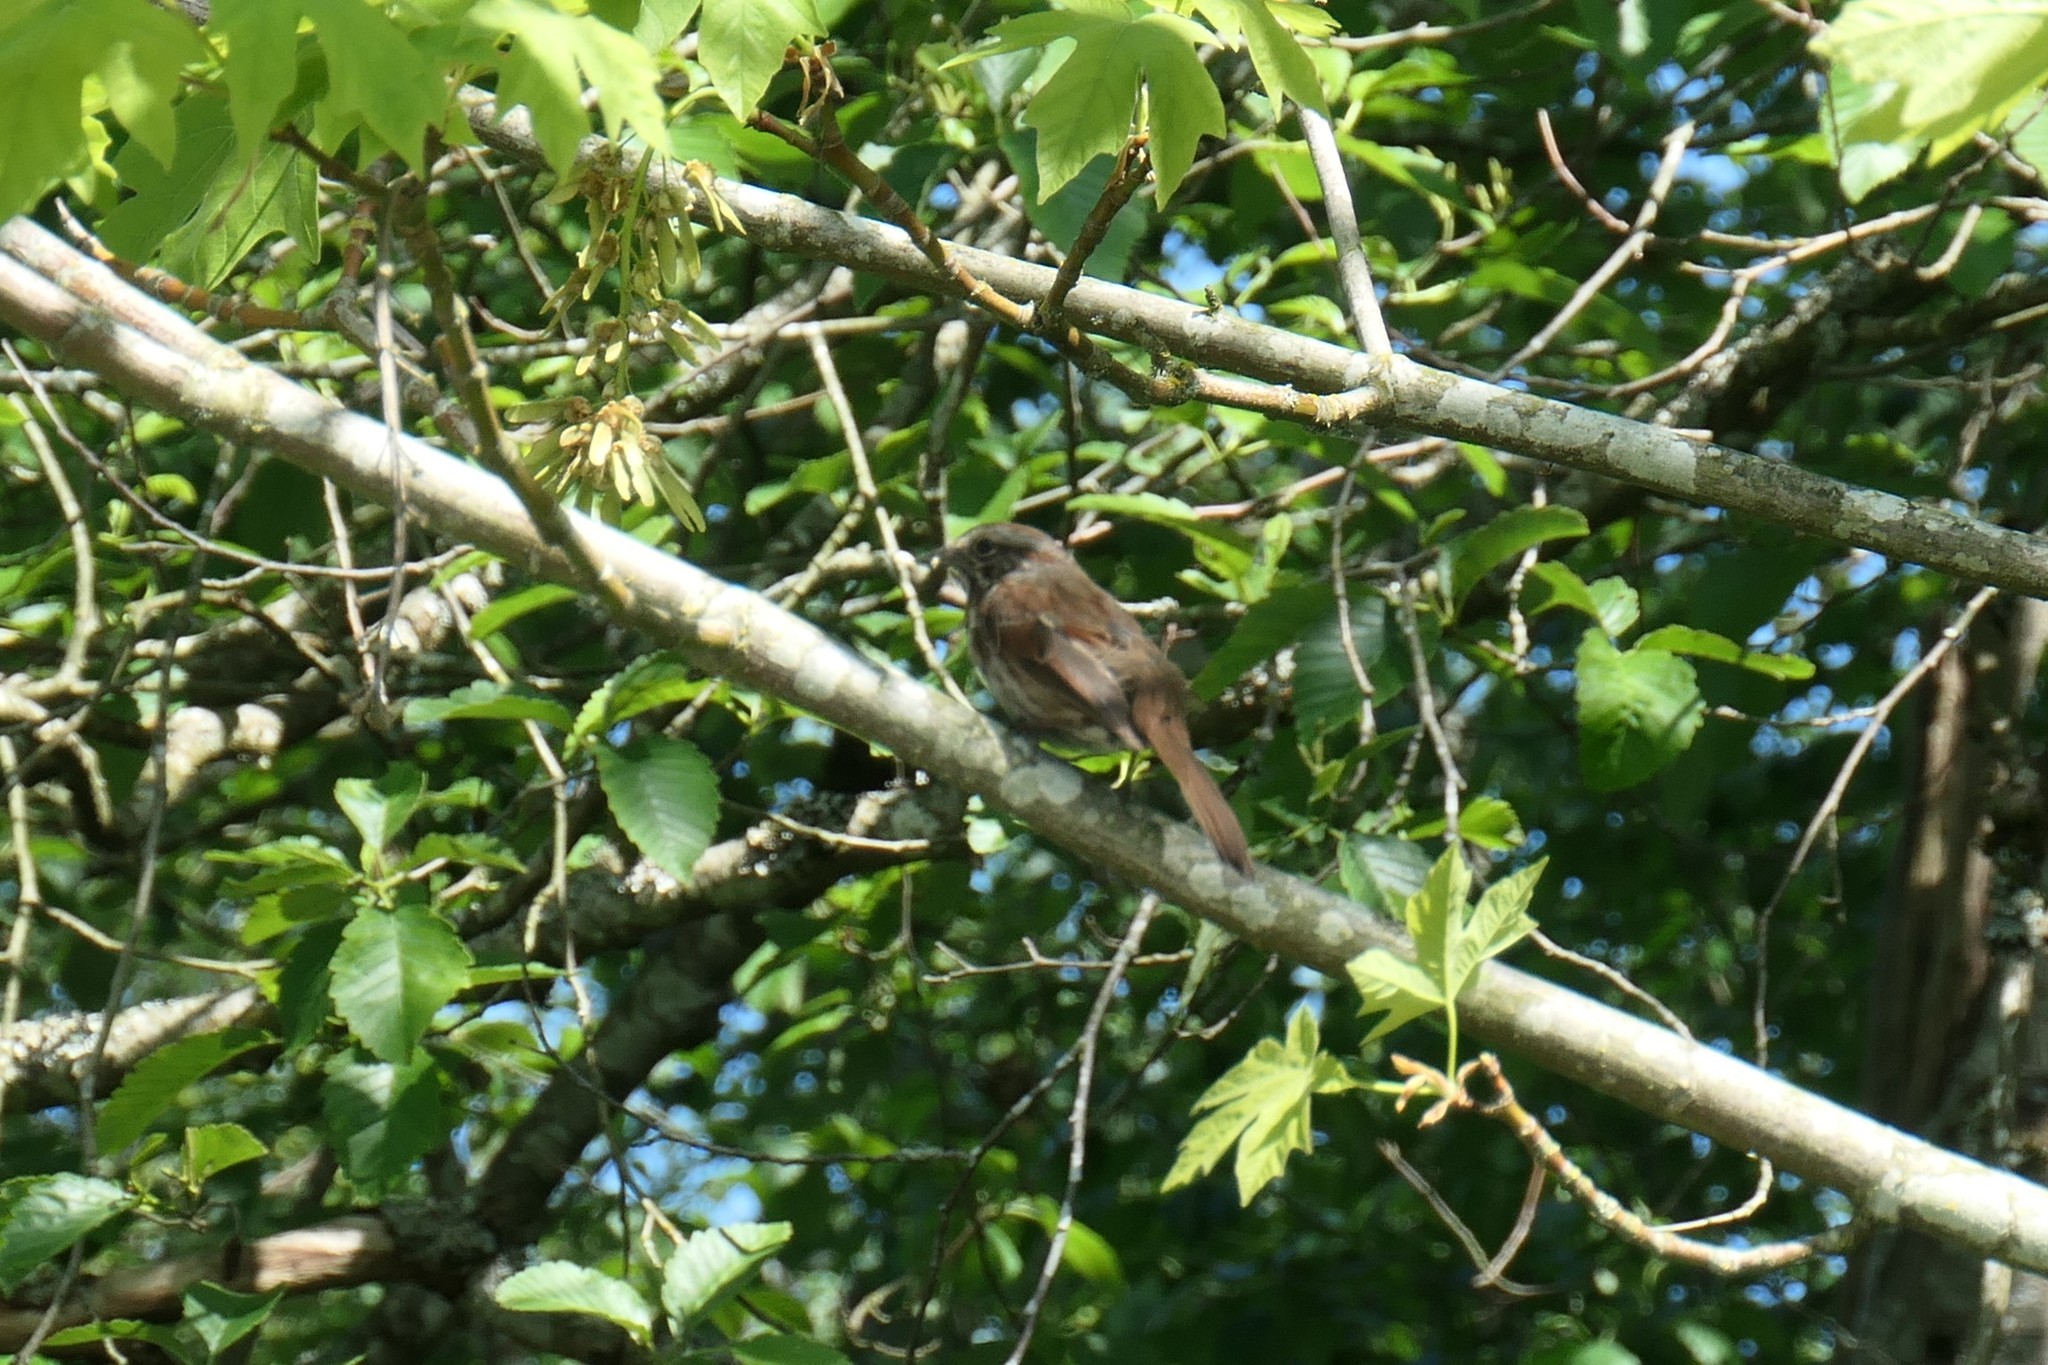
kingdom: Animalia
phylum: Chordata
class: Aves
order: Passeriformes
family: Passerellidae
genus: Melospiza
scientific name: Melospiza melodia
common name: Song sparrow
